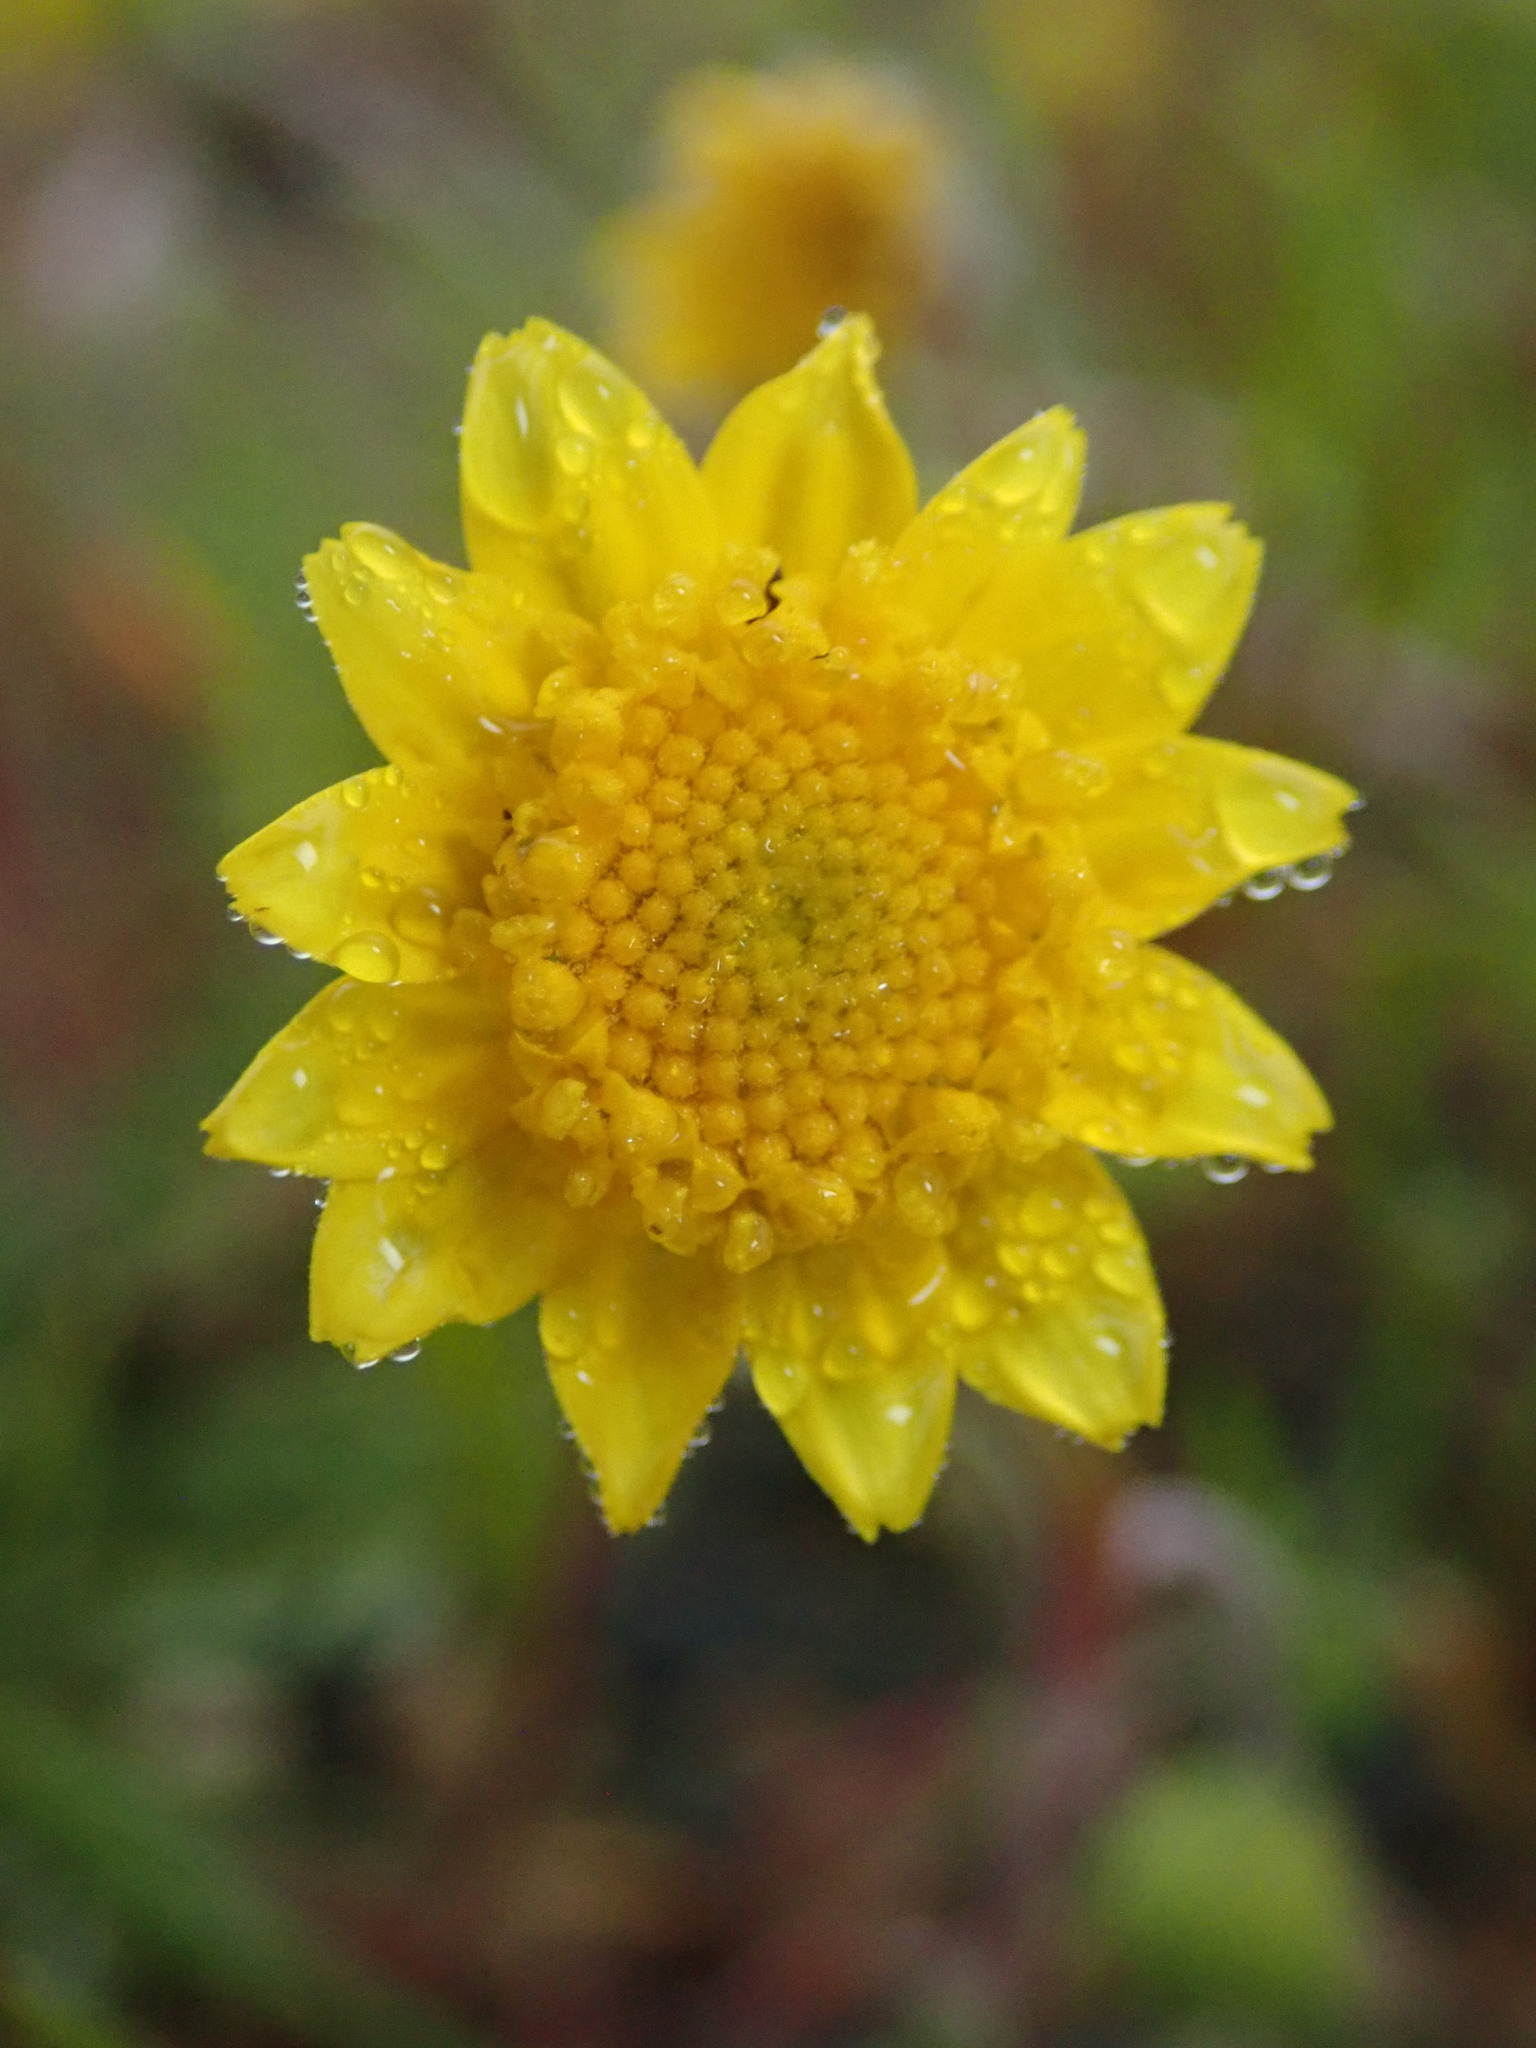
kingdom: Plantae
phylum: Tracheophyta
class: Magnoliopsida
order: Asterales
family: Asteraceae
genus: Lasthenia
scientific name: Lasthenia californica
